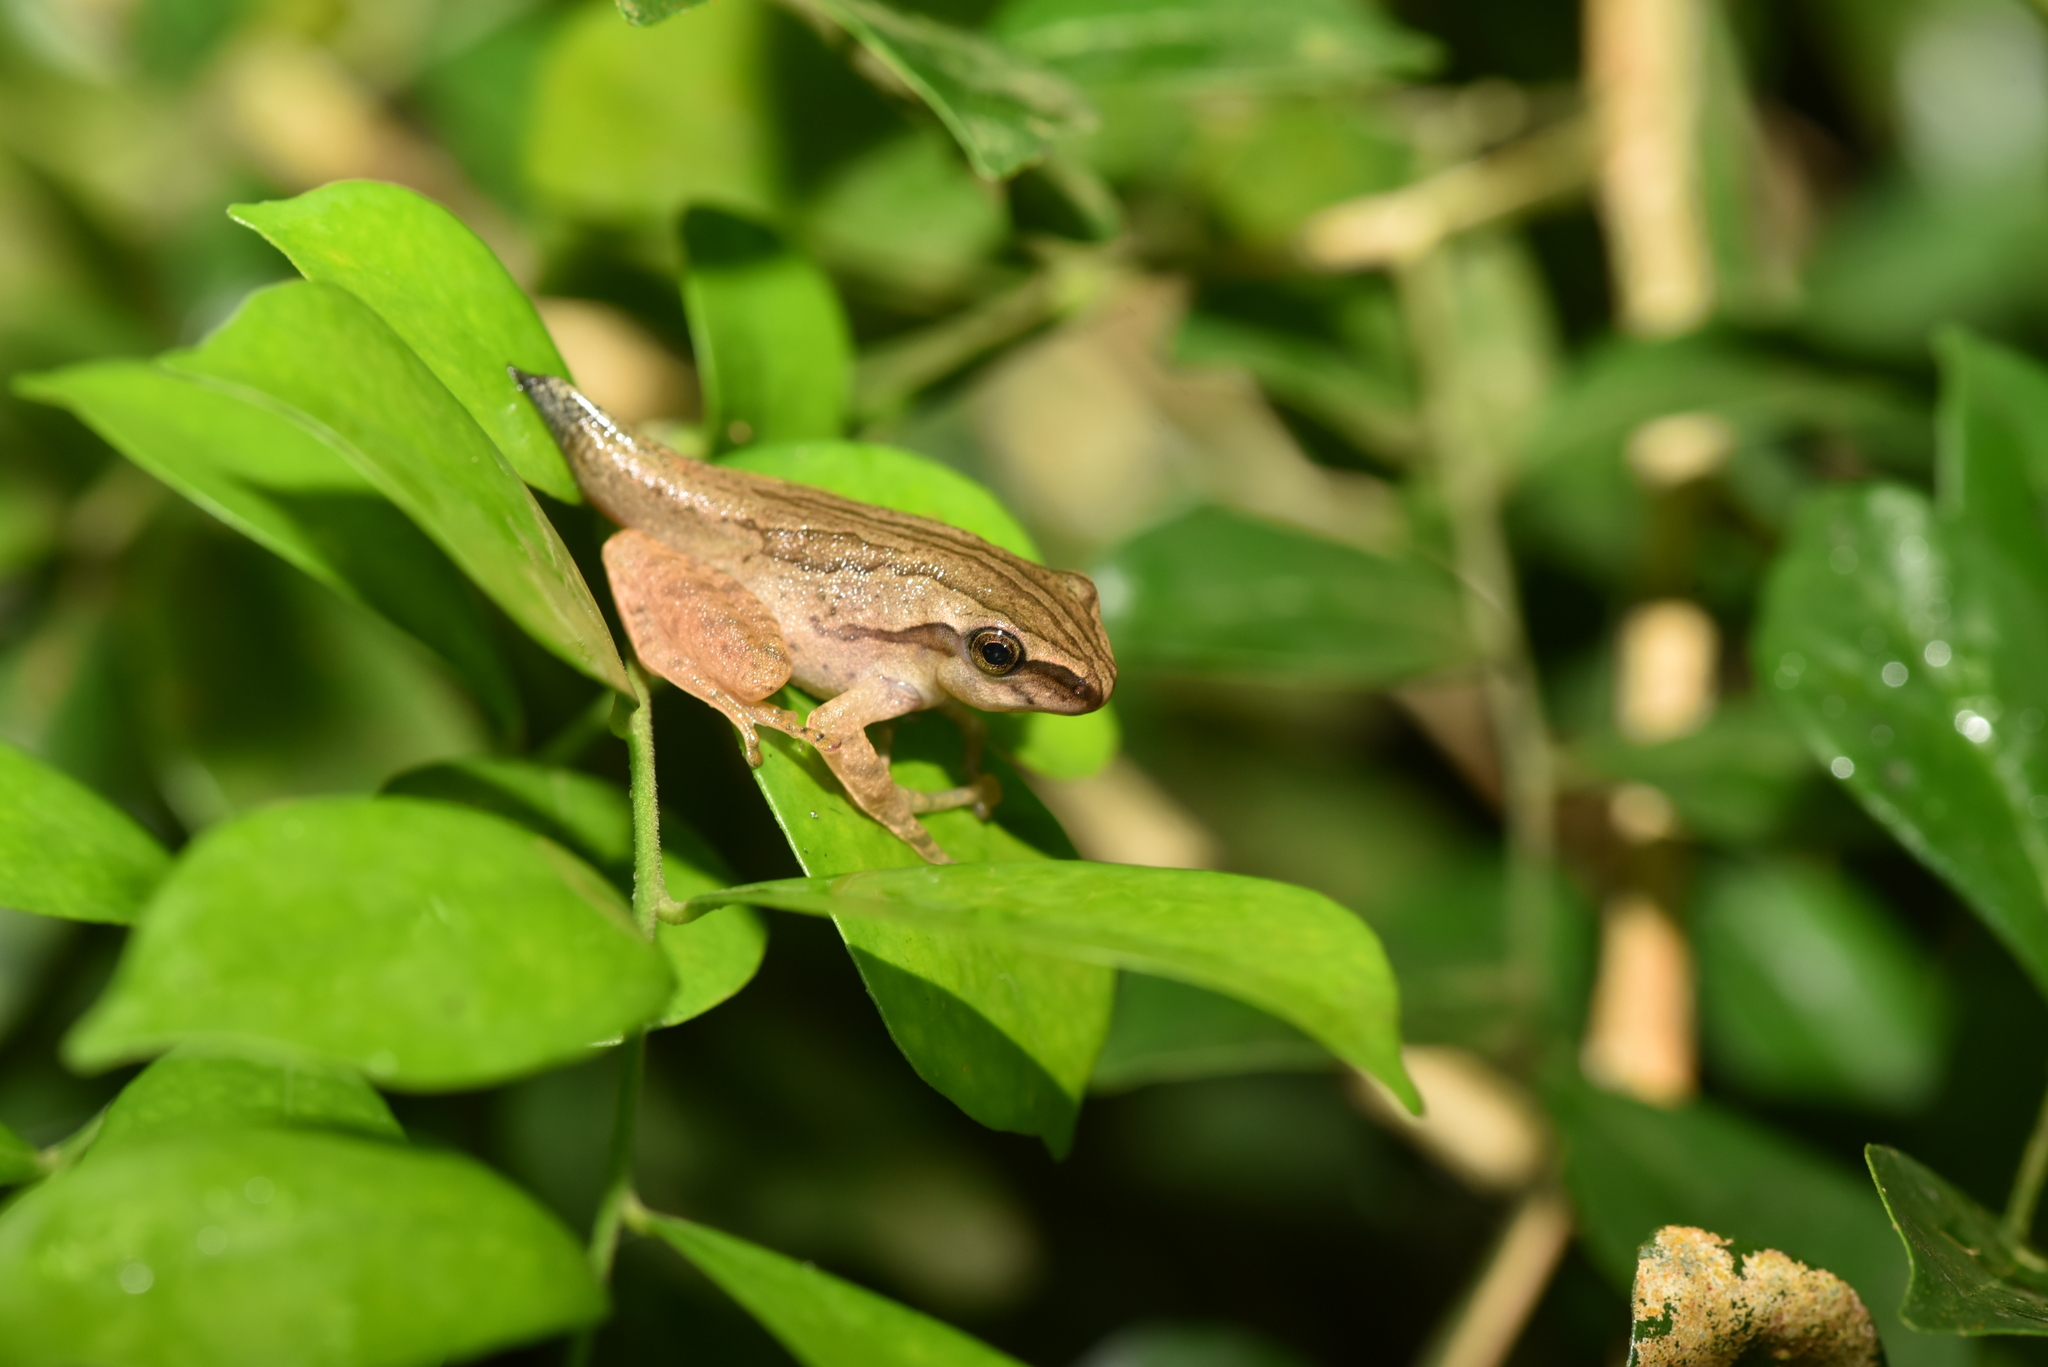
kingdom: Animalia
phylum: Chordata
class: Amphibia
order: Anura
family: Rhacophoridae
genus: Polypedates
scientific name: Polypedates braueri
